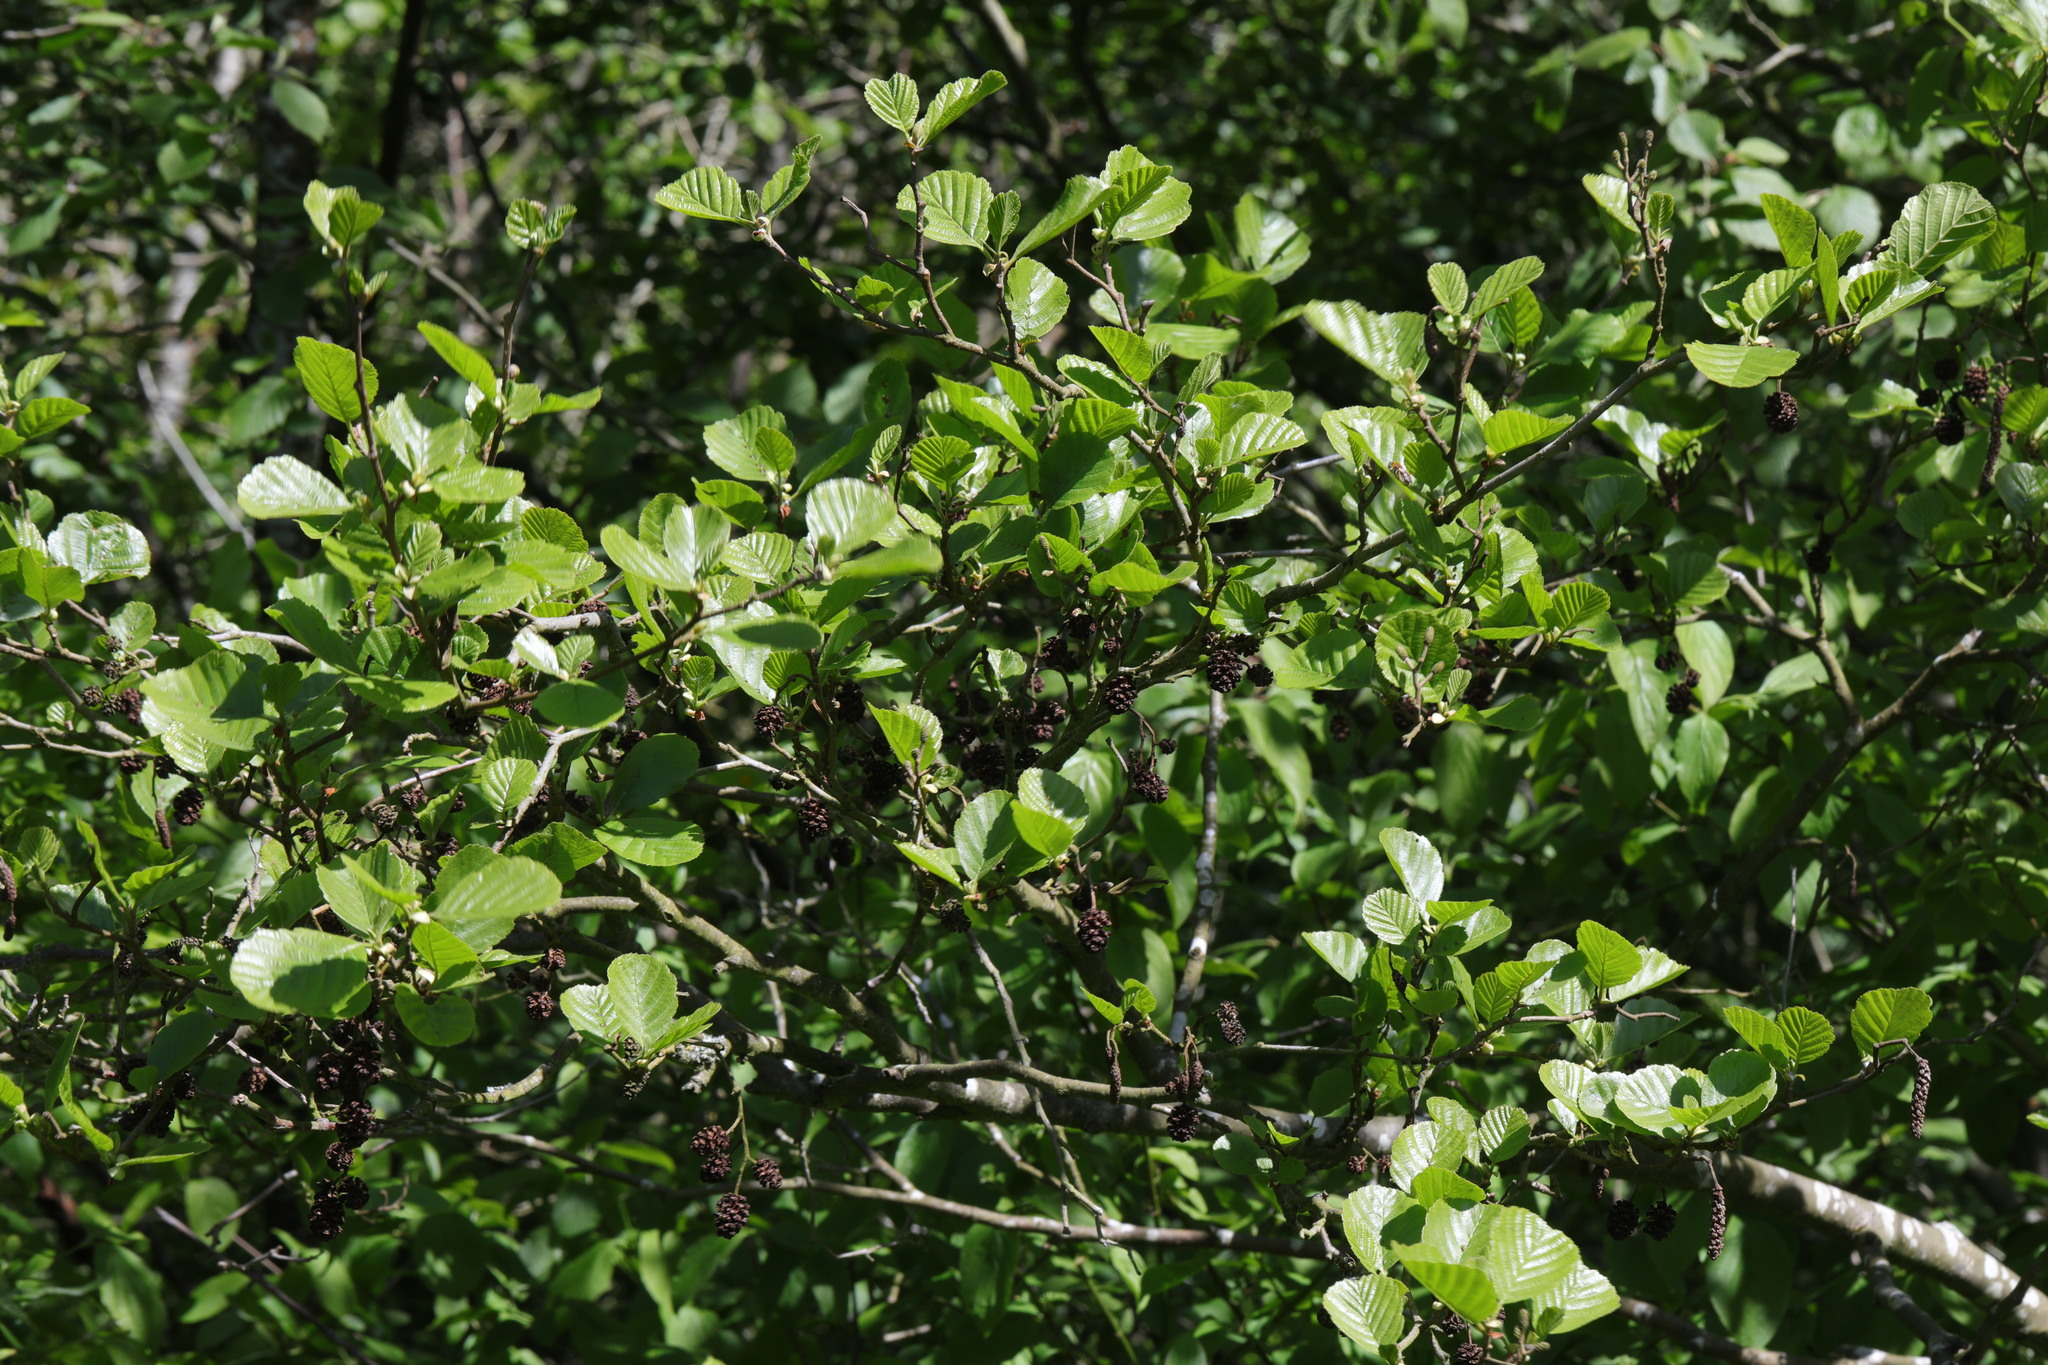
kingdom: Plantae
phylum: Tracheophyta
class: Magnoliopsida
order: Fagales
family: Betulaceae
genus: Alnus
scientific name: Alnus glutinosa
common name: Black alder
